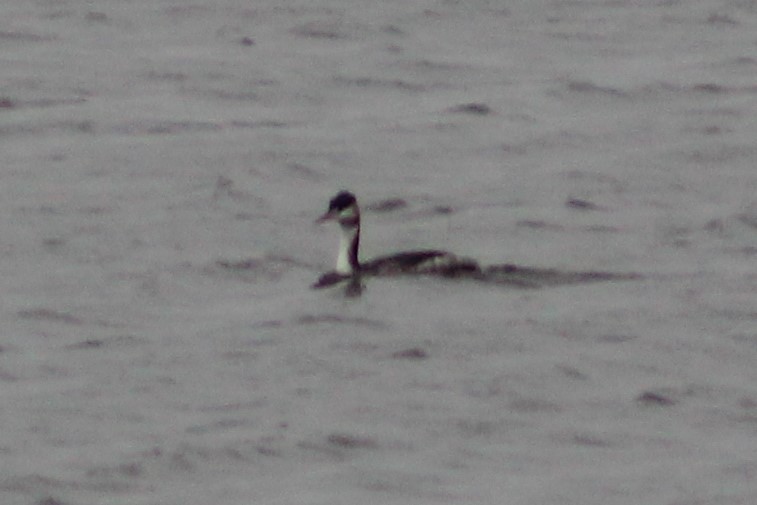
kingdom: Animalia
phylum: Chordata
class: Aves
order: Podicipediformes
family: Podicipedidae
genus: Podiceps
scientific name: Podiceps cristatus
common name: Great crested grebe
